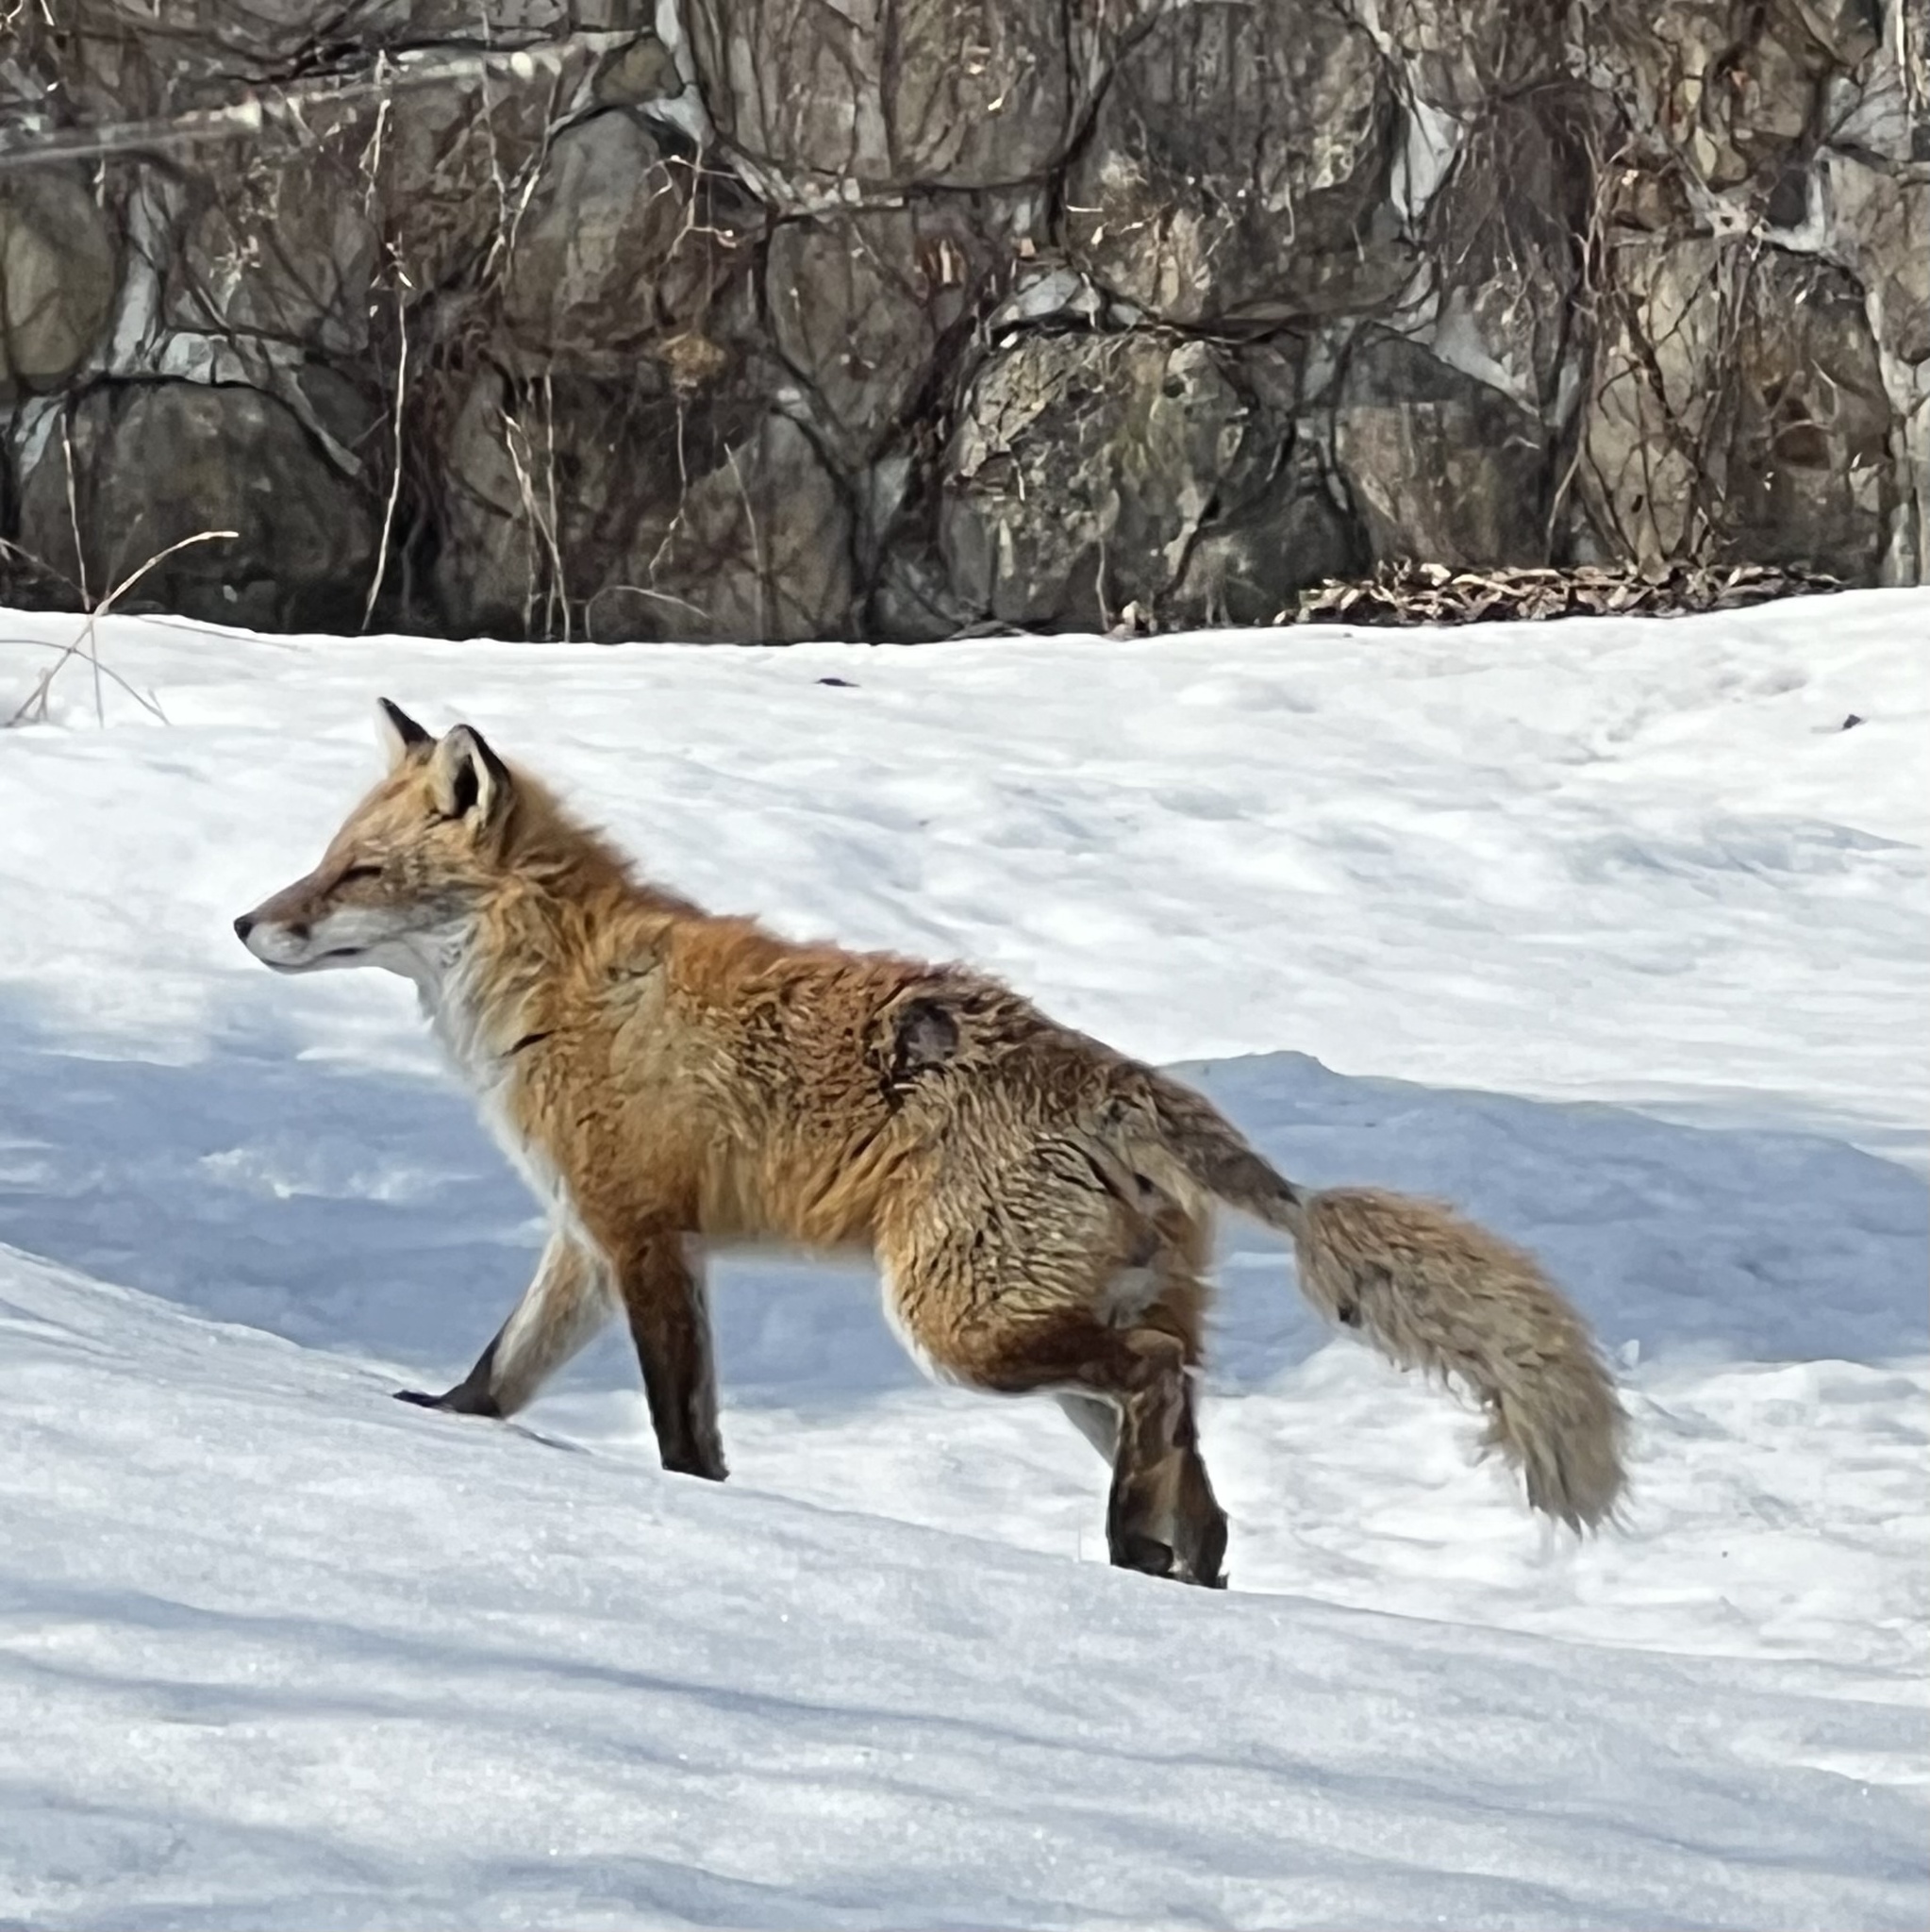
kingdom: Animalia
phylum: Chordata
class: Mammalia
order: Carnivora
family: Canidae
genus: Vulpes
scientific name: Vulpes vulpes
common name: Red fox
